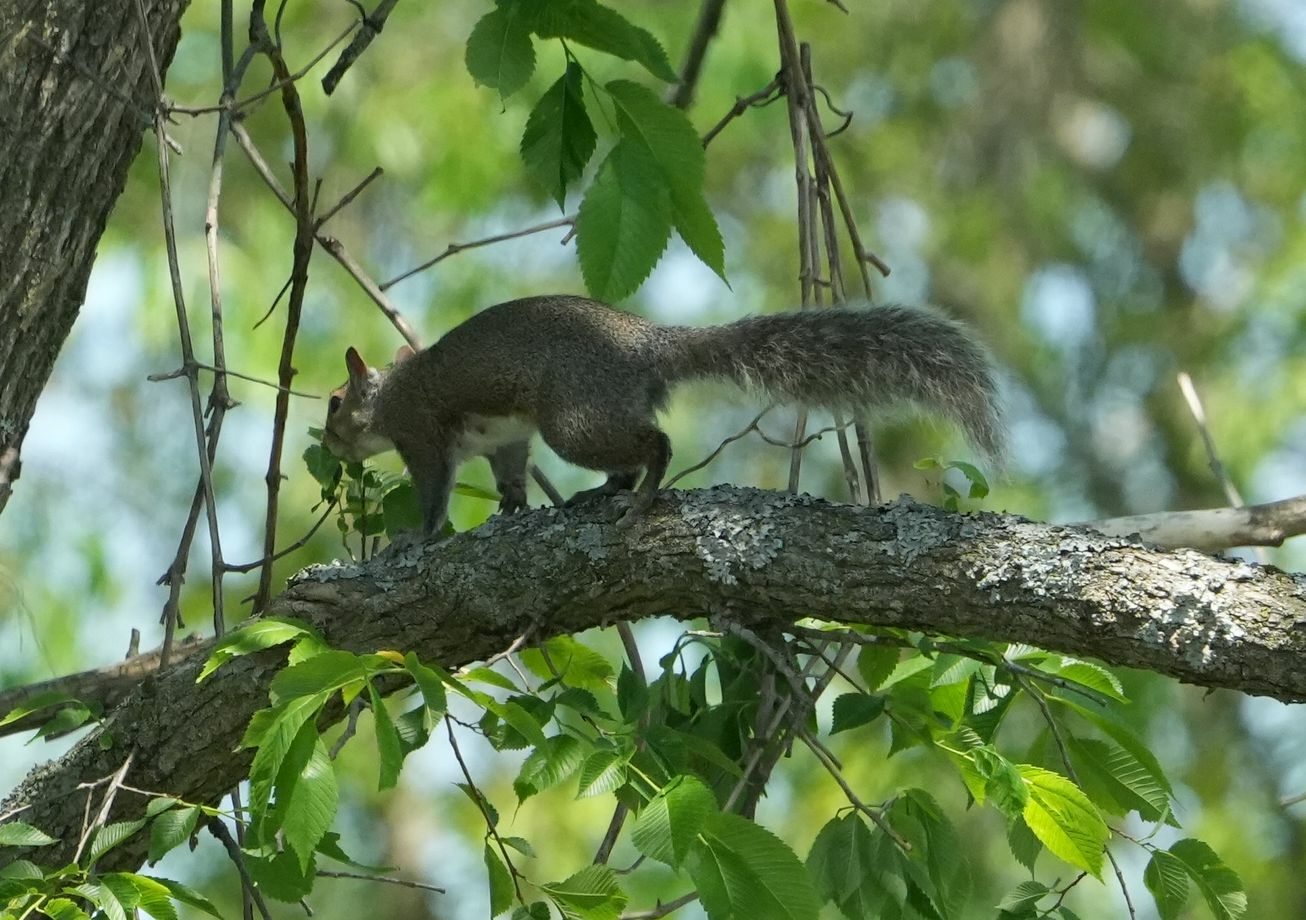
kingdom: Animalia
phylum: Chordata
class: Mammalia
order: Rodentia
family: Sciuridae
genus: Sciurus
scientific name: Sciurus carolinensis
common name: Eastern gray squirrel
